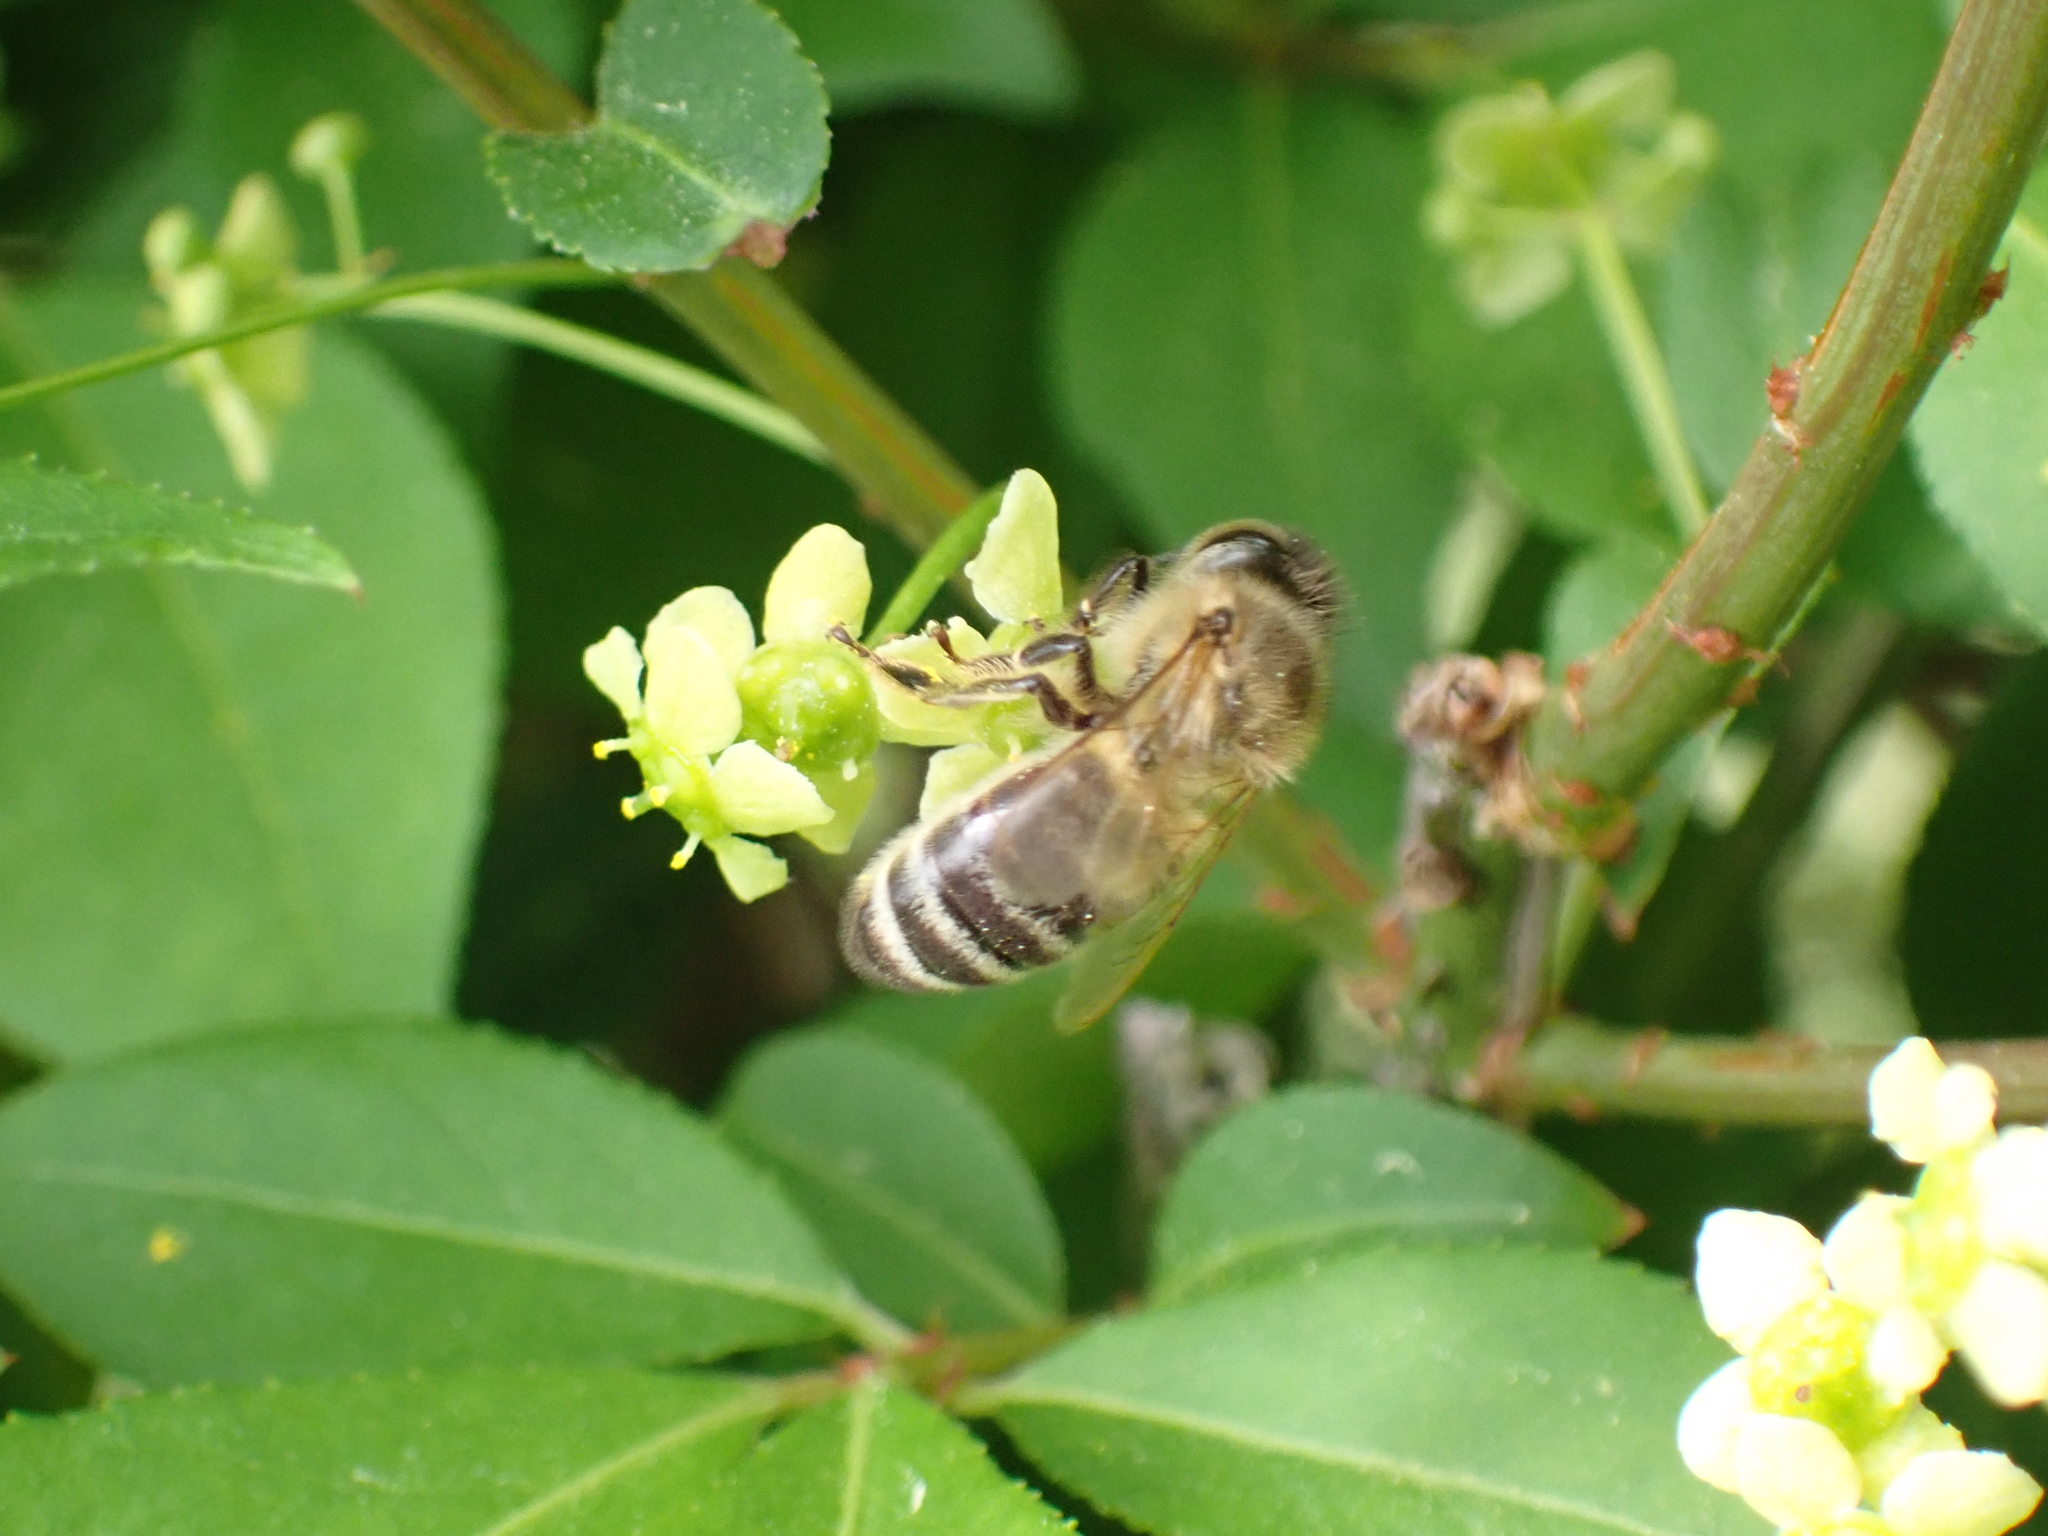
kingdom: Animalia
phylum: Arthropoda
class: Insecta
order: Hymenoptera
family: Apidae
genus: Apis
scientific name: Apis mellifera
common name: Honey bee
